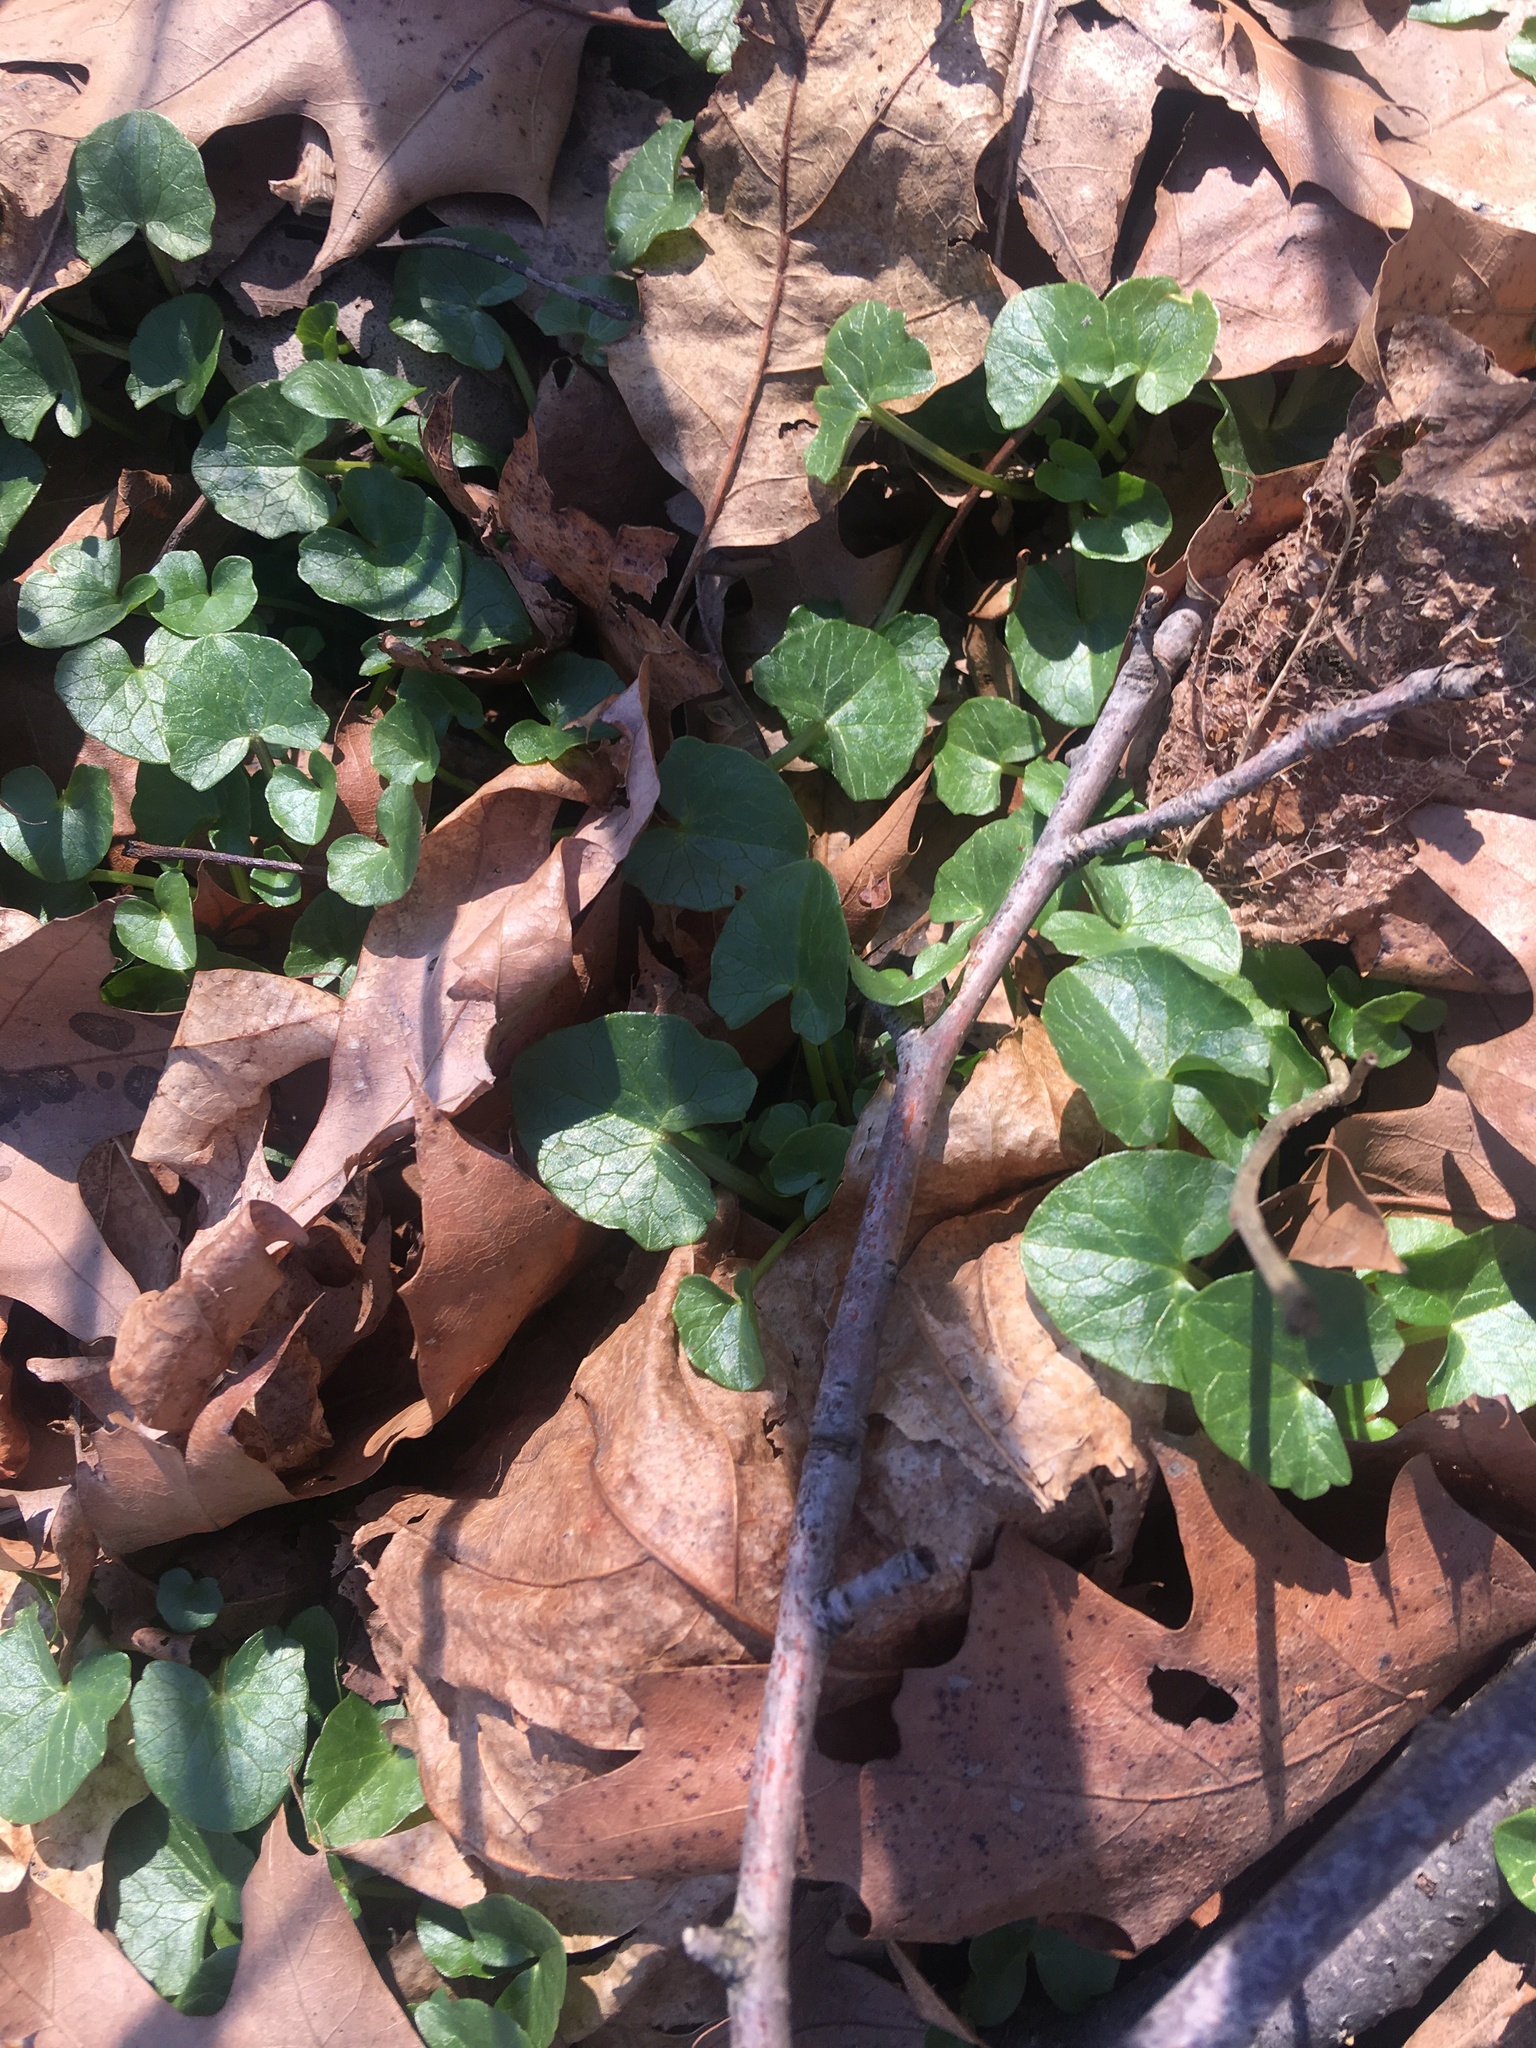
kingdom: Plantae
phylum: Tracheophyta
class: Magnoliopsida
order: Ranunculales
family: Ranunculaceae
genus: Ficaria
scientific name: Ficaria verna
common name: Lesser celandine
